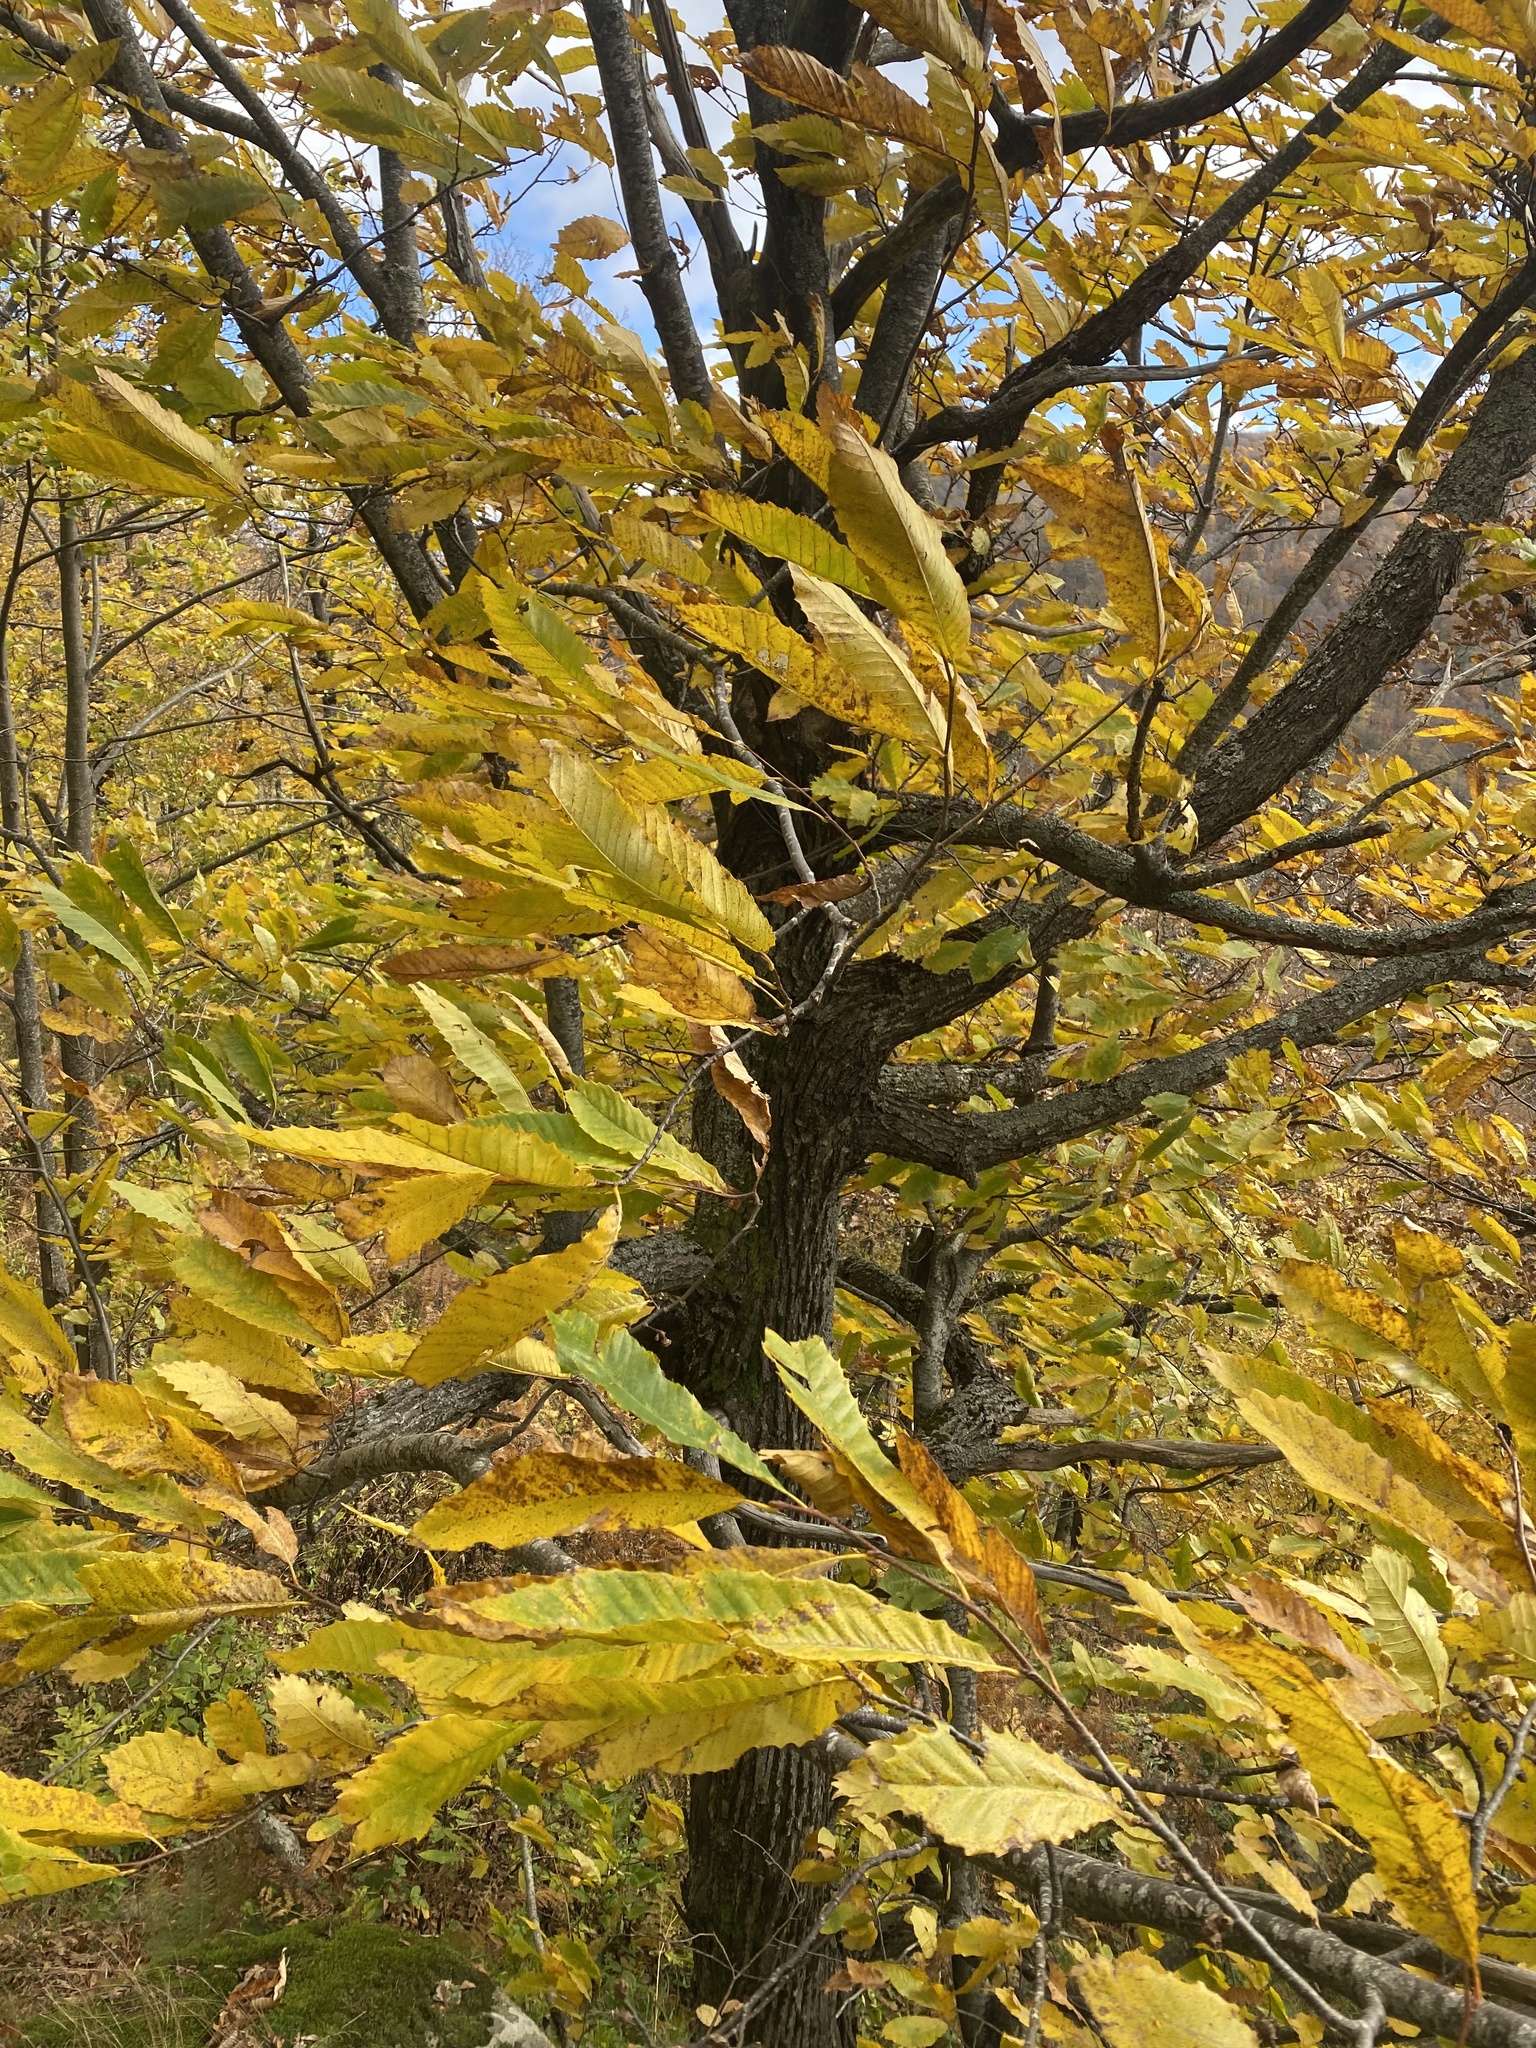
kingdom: Plantae
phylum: Tracheophyta
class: Magnoliopsida
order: Fagales
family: Fagaceae
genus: Castanea
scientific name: Castanea sativa
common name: Sweet chestnut
